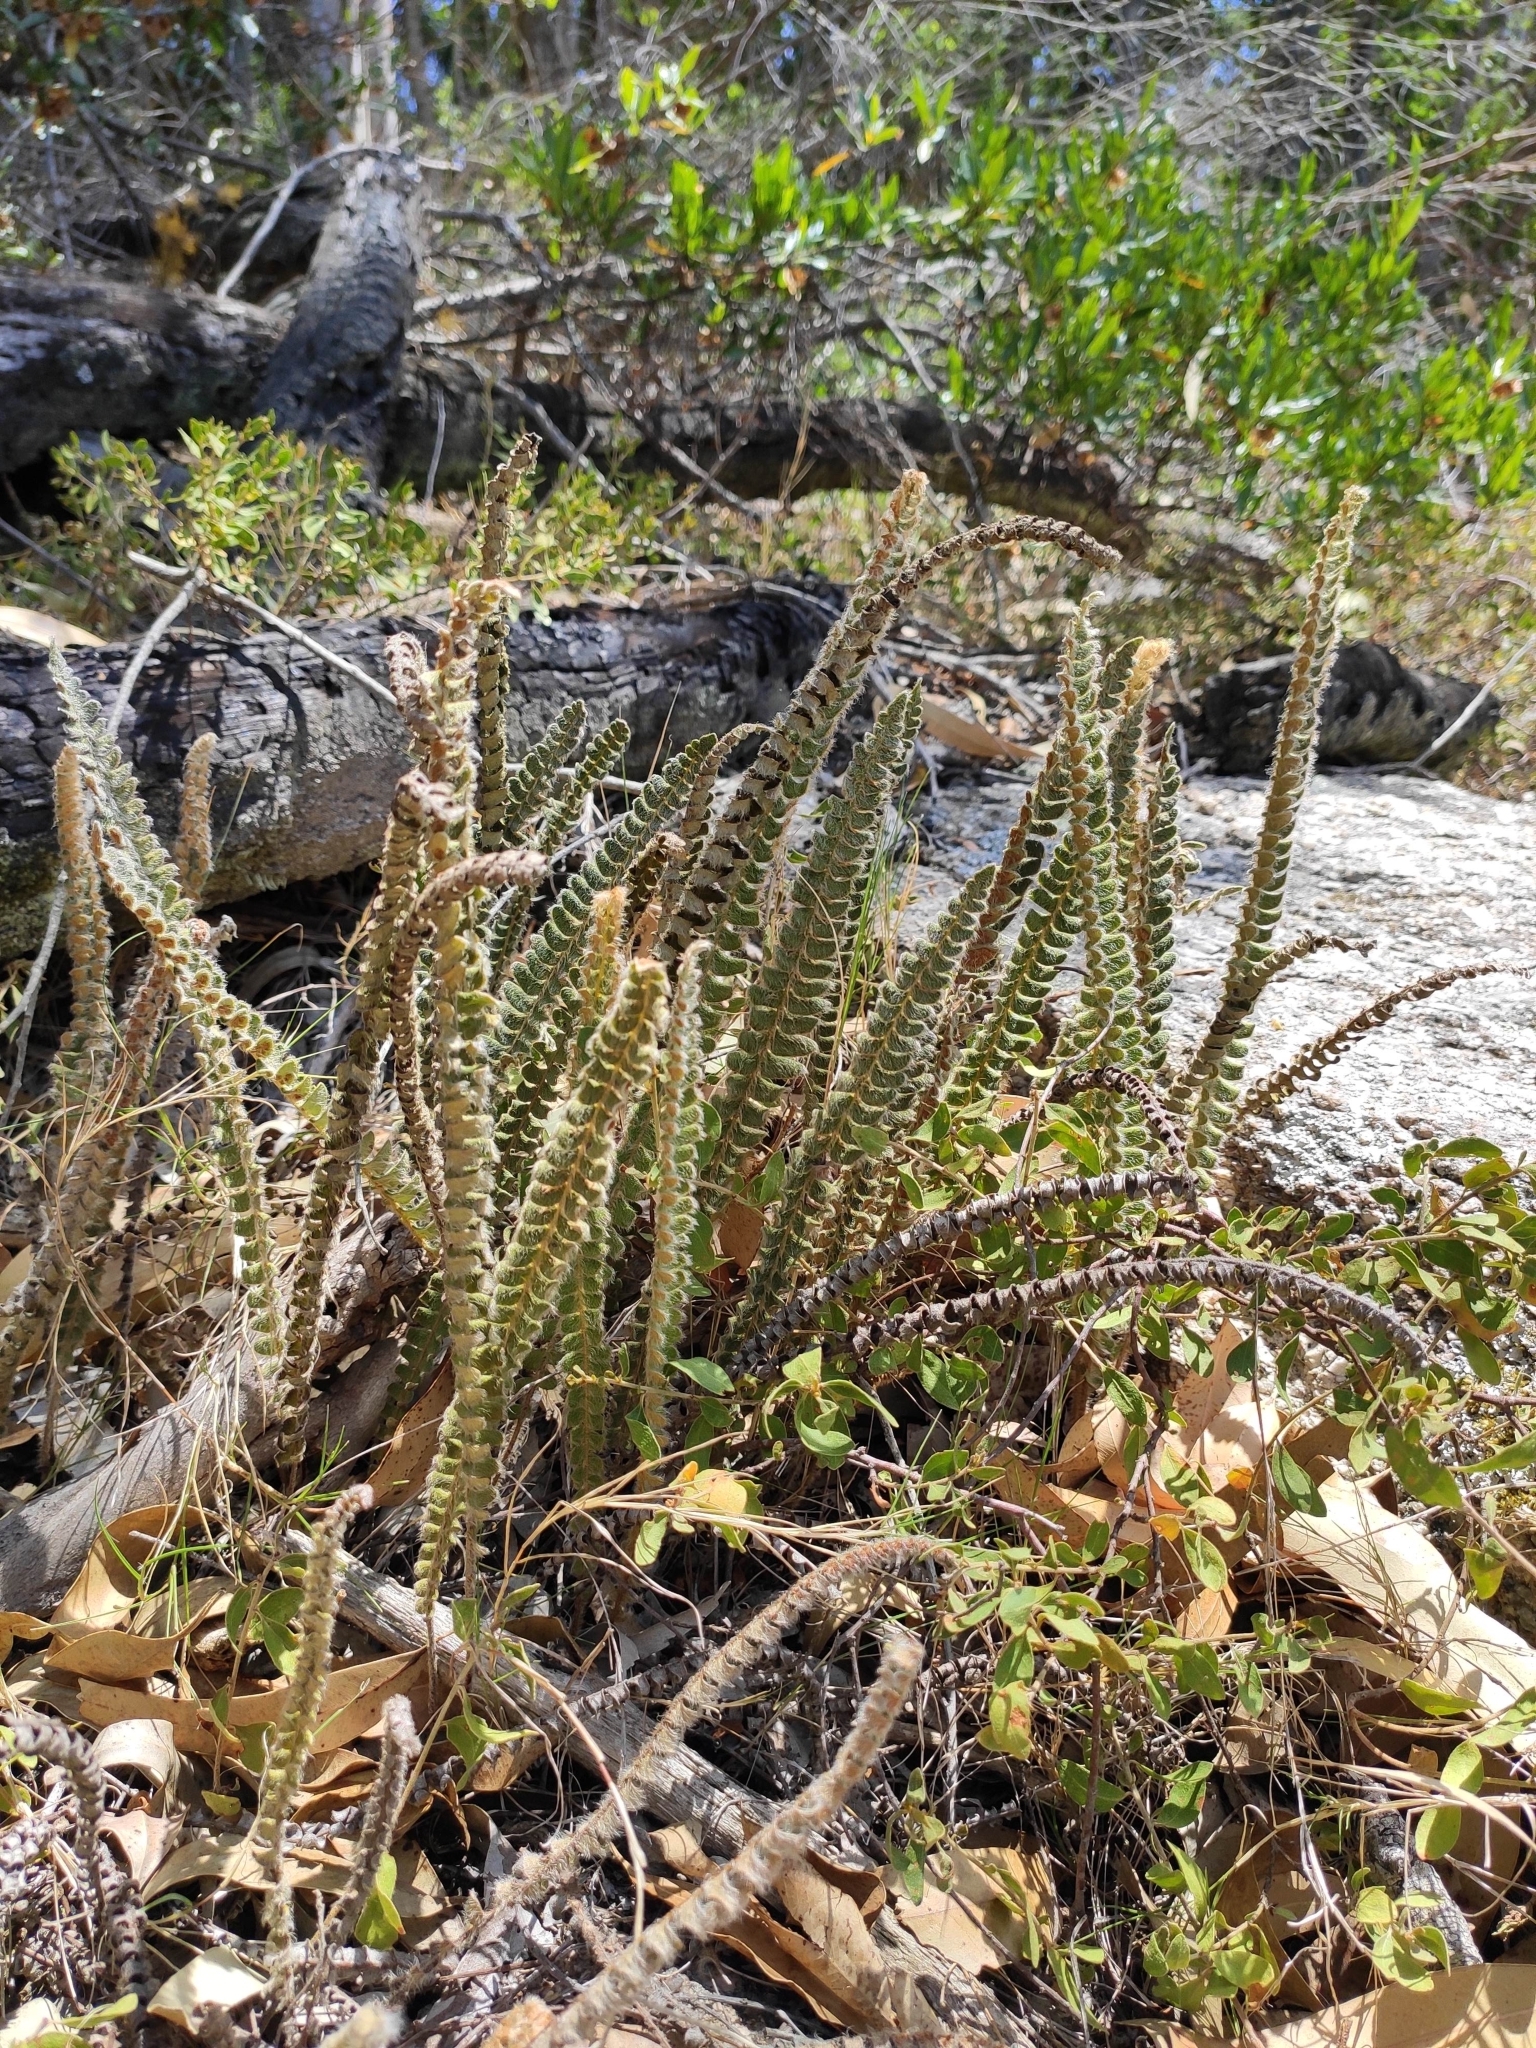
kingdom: Plantae
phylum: Tracheophyta
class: Polypodiopsida
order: Polypodiales
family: Polypodiaceae
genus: Pleopeltis
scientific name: Pleopeltis lepidopteris
